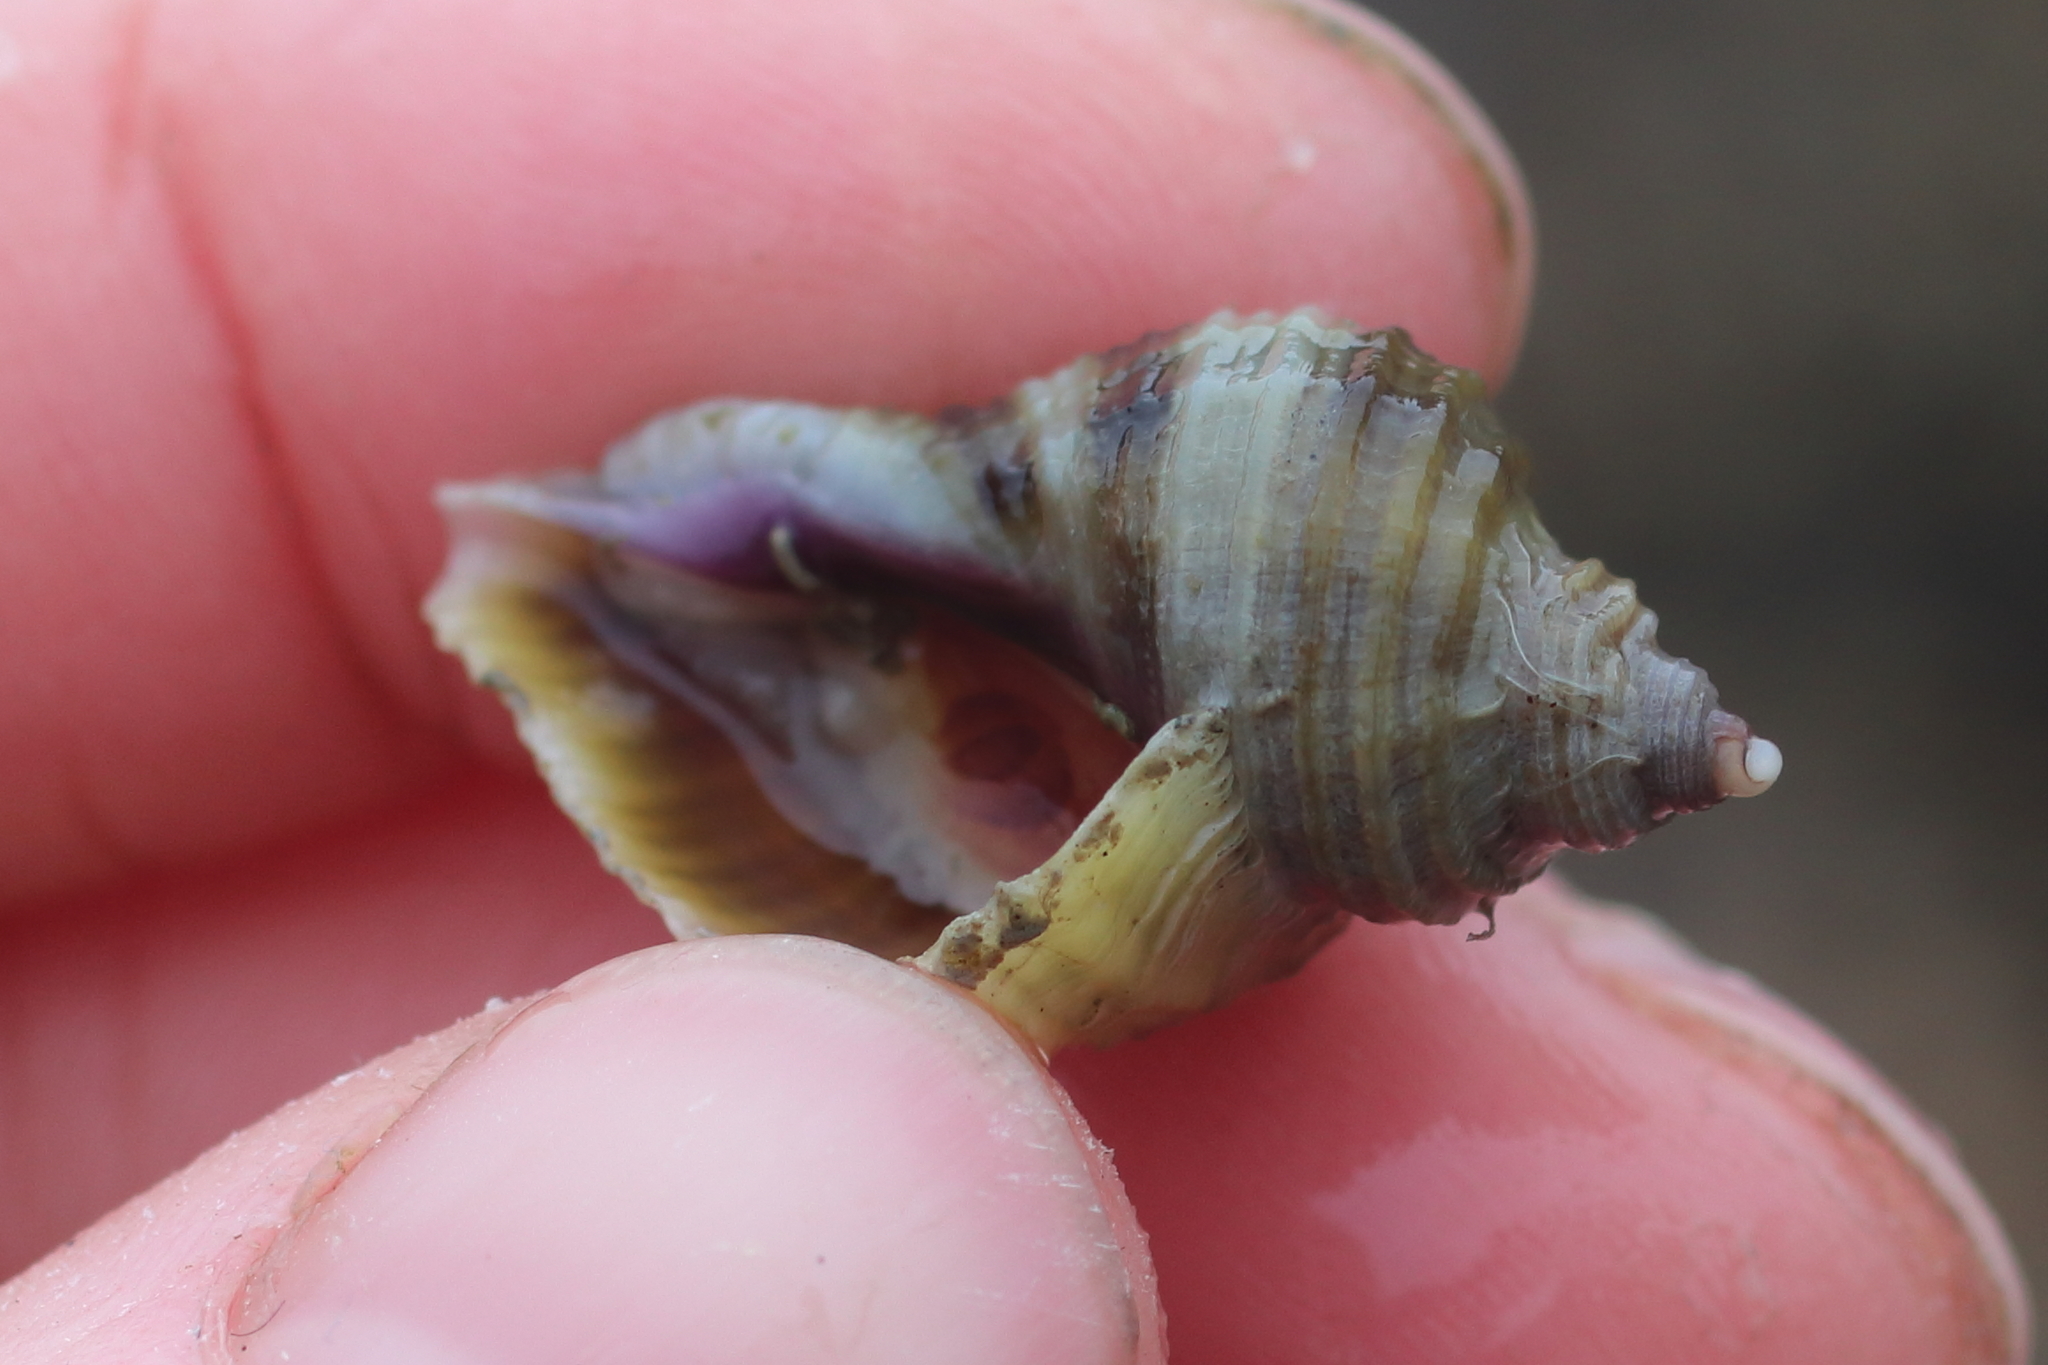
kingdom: Animalia
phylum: Mollusca
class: Gastropoda
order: Neogastropoda
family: Muricidae
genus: Nucella
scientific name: Nucella lima
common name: Rough purple
